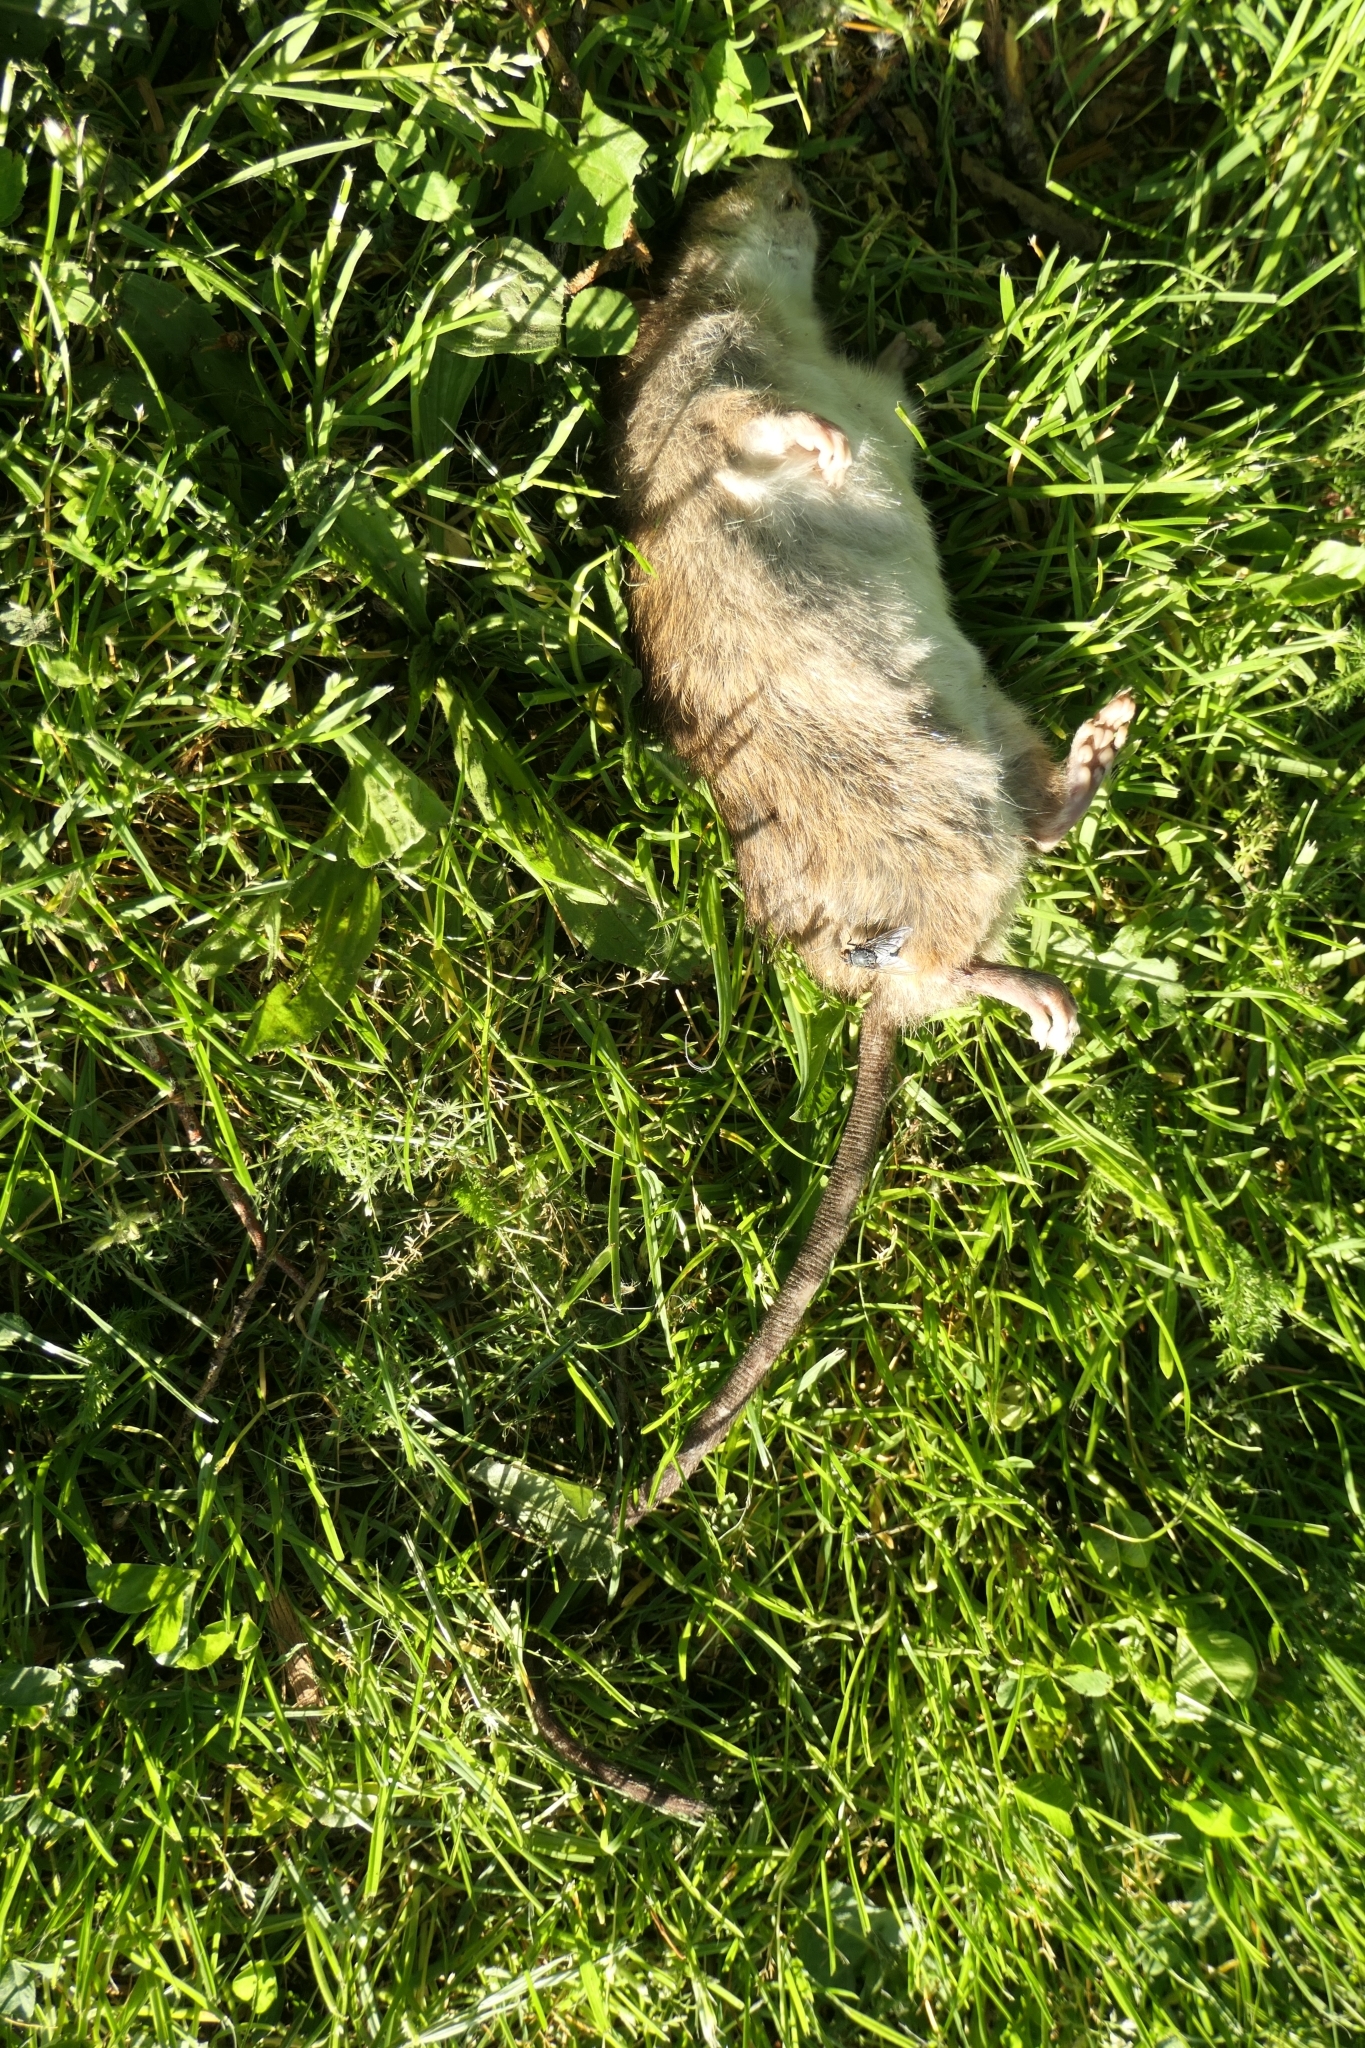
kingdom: Animalia
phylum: Chordata
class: Mammalia
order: Rodentia
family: Muridae
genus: Rattus
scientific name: Rattus rattus
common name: Black rat
